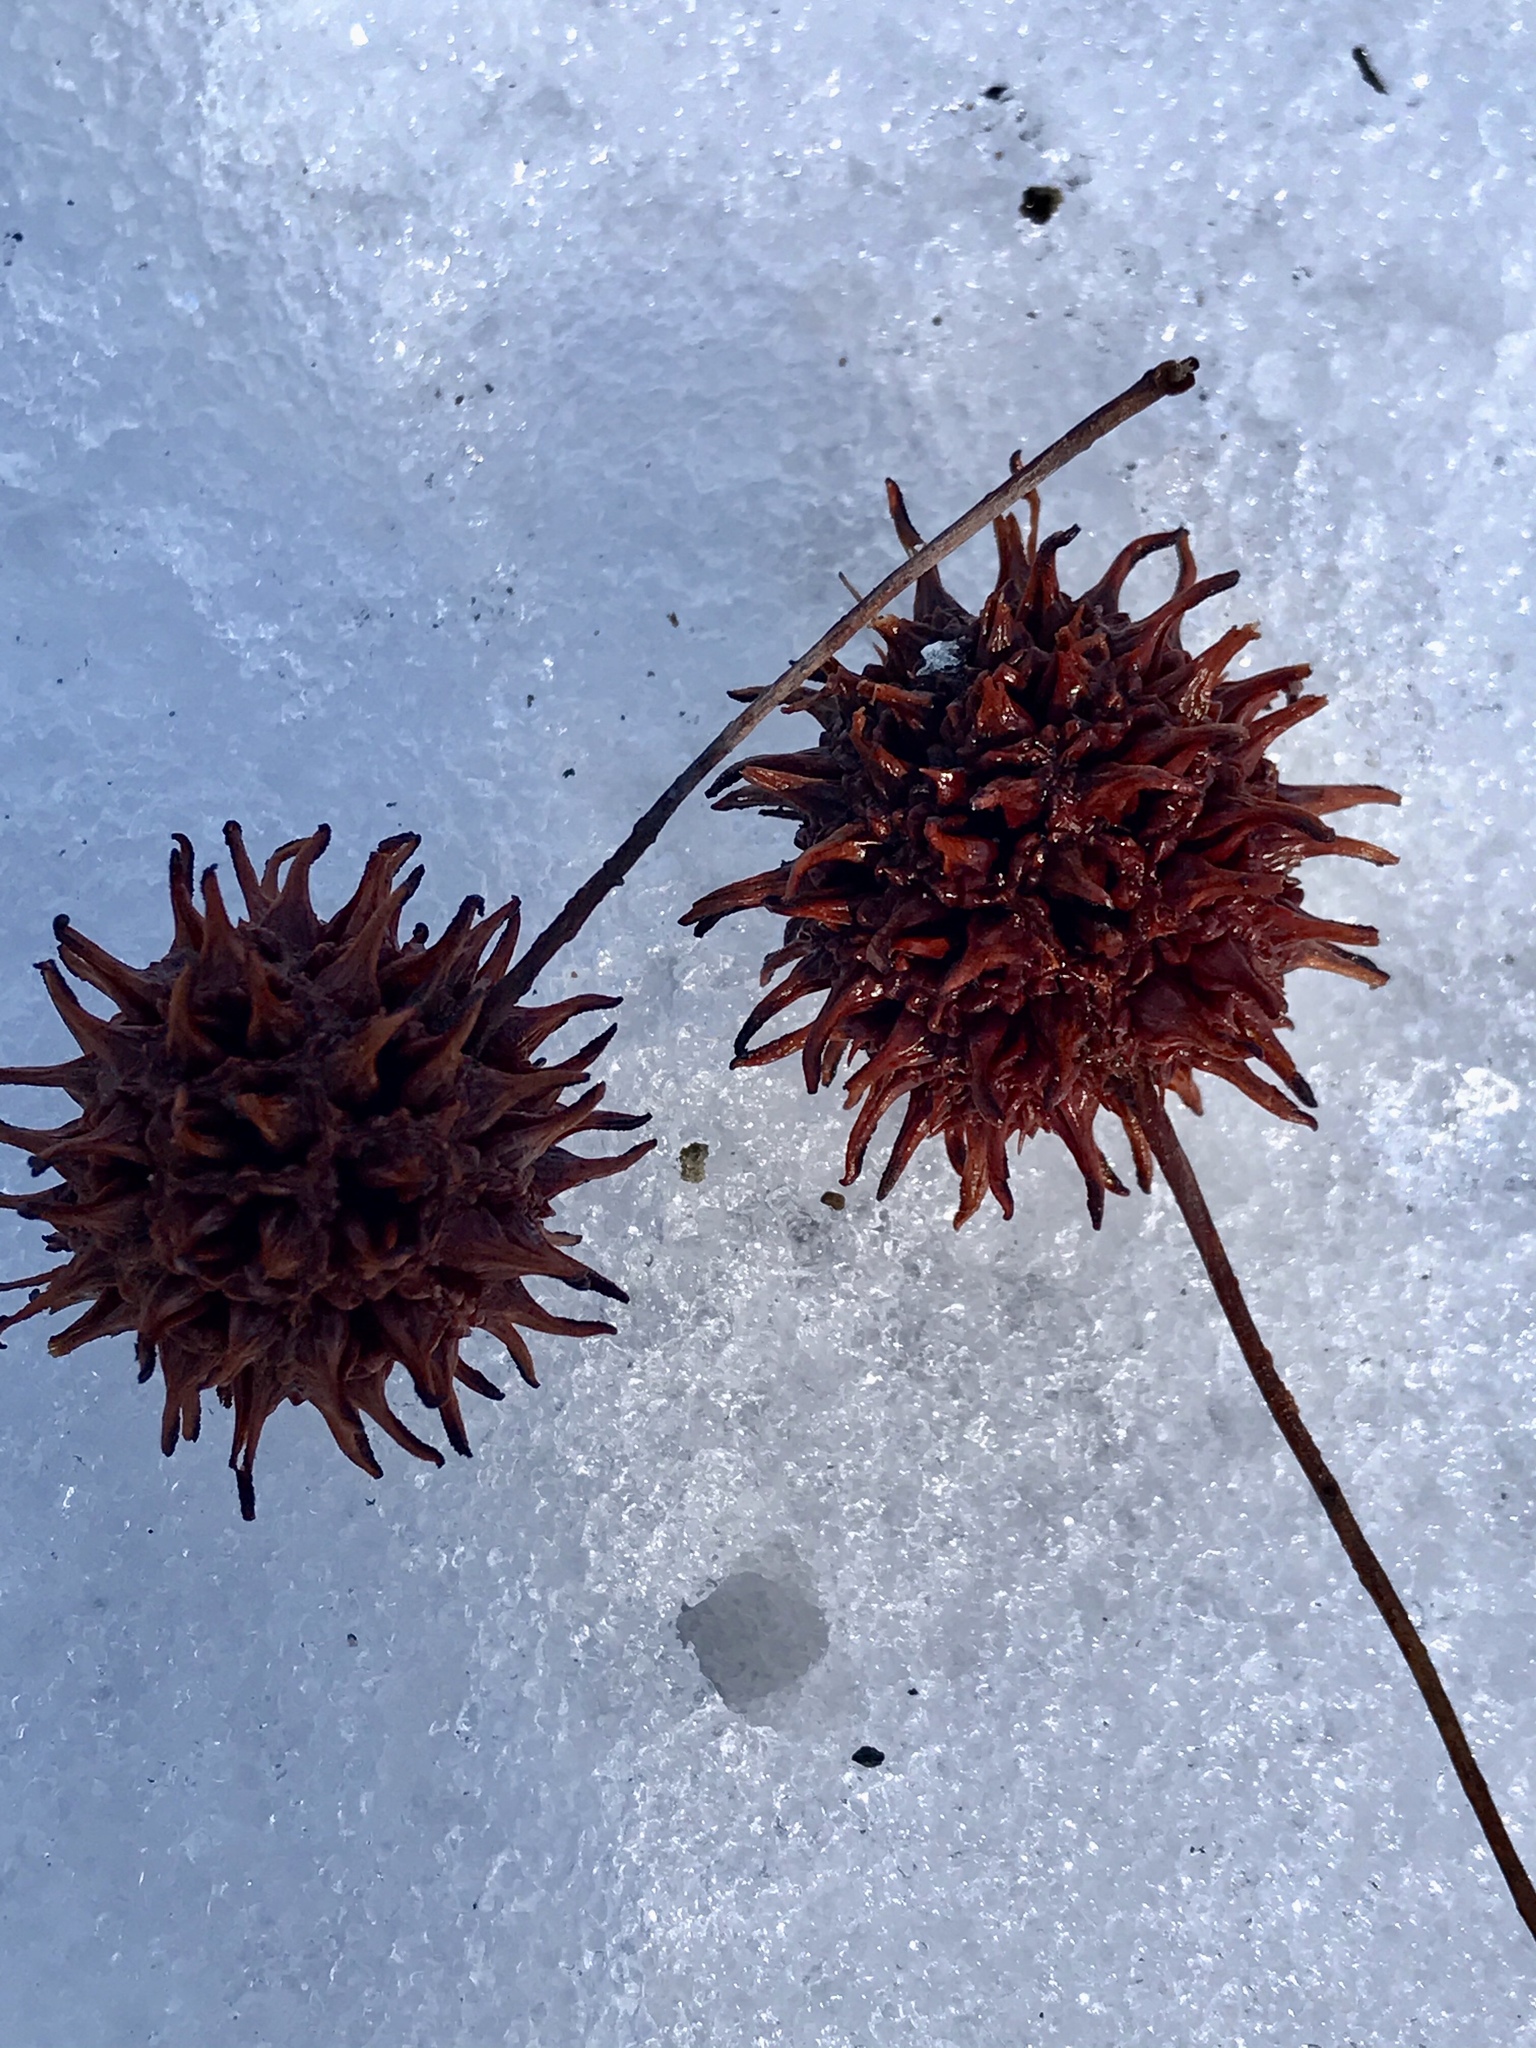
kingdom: Plantae
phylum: Tracheophyta
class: Magnoliopsida
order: Saxifragales
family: Altingiaceae
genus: Liquidambar
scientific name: Liquidambar styraciflua
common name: Sweet gum
